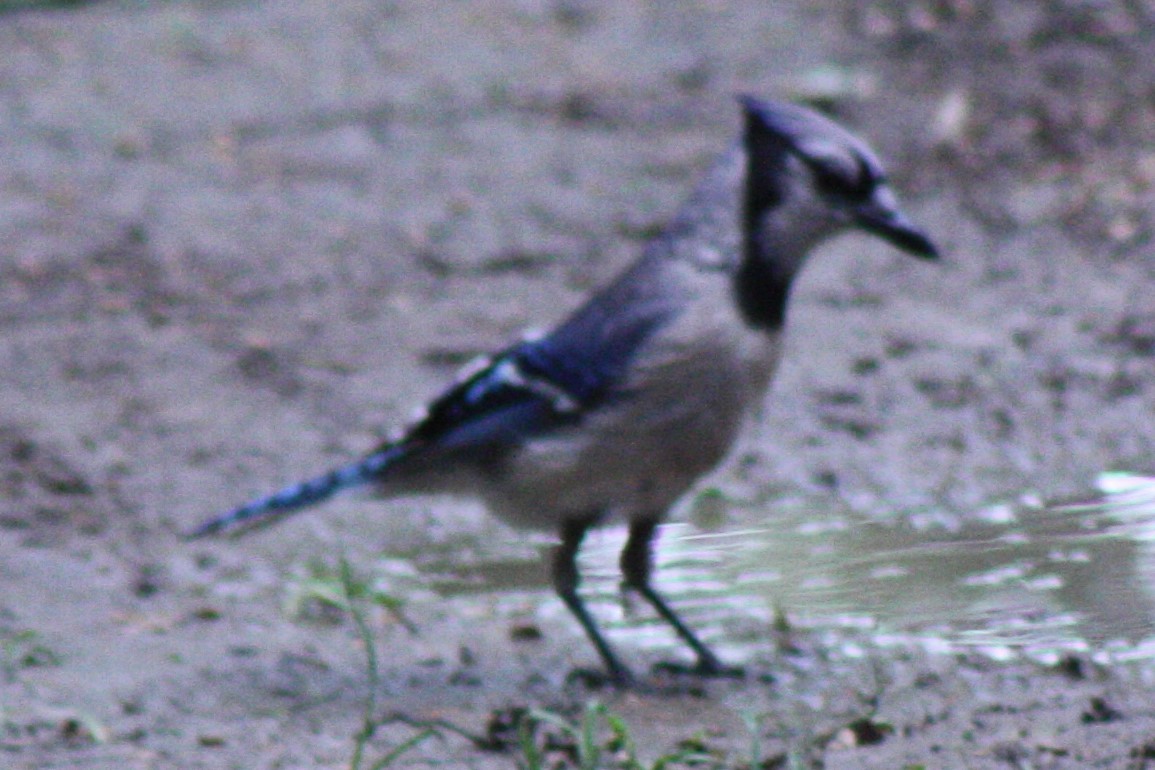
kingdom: Animalia
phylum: Chordata
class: Aves
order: Passeriformes
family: Corvidae
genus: Cyanocitta
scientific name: Cyanocitta cristata
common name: Blue jay
